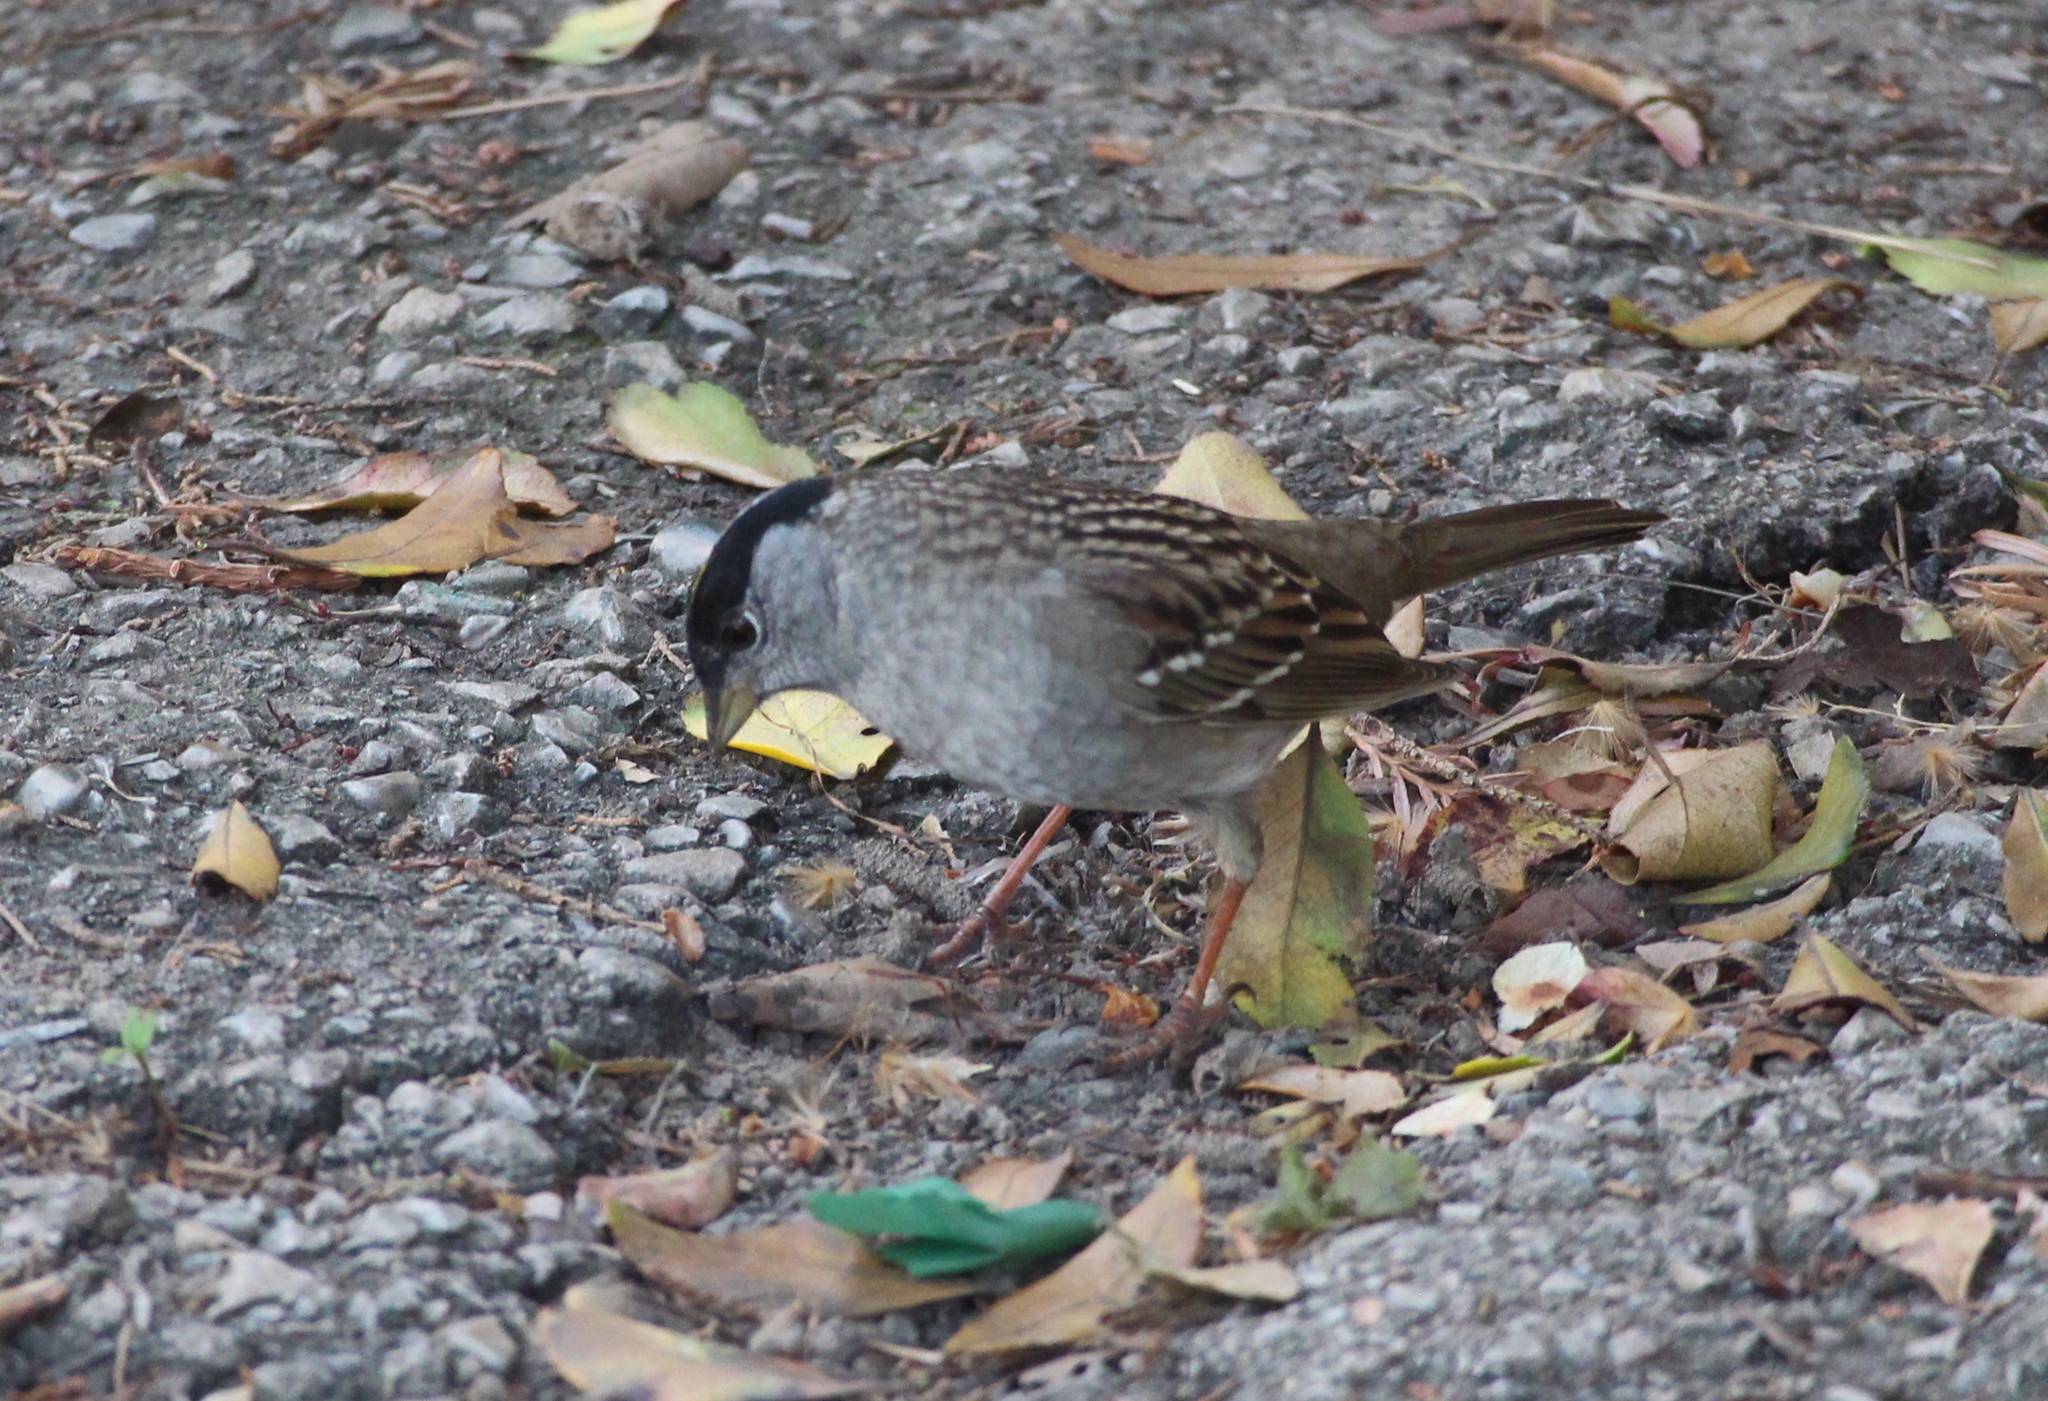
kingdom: Animalia
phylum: Chordata
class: Aves
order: Passeriformes
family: Passerellidae
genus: Zonotrichia
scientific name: Zonotrichia atricapilla
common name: Golden-crowned sparrow
